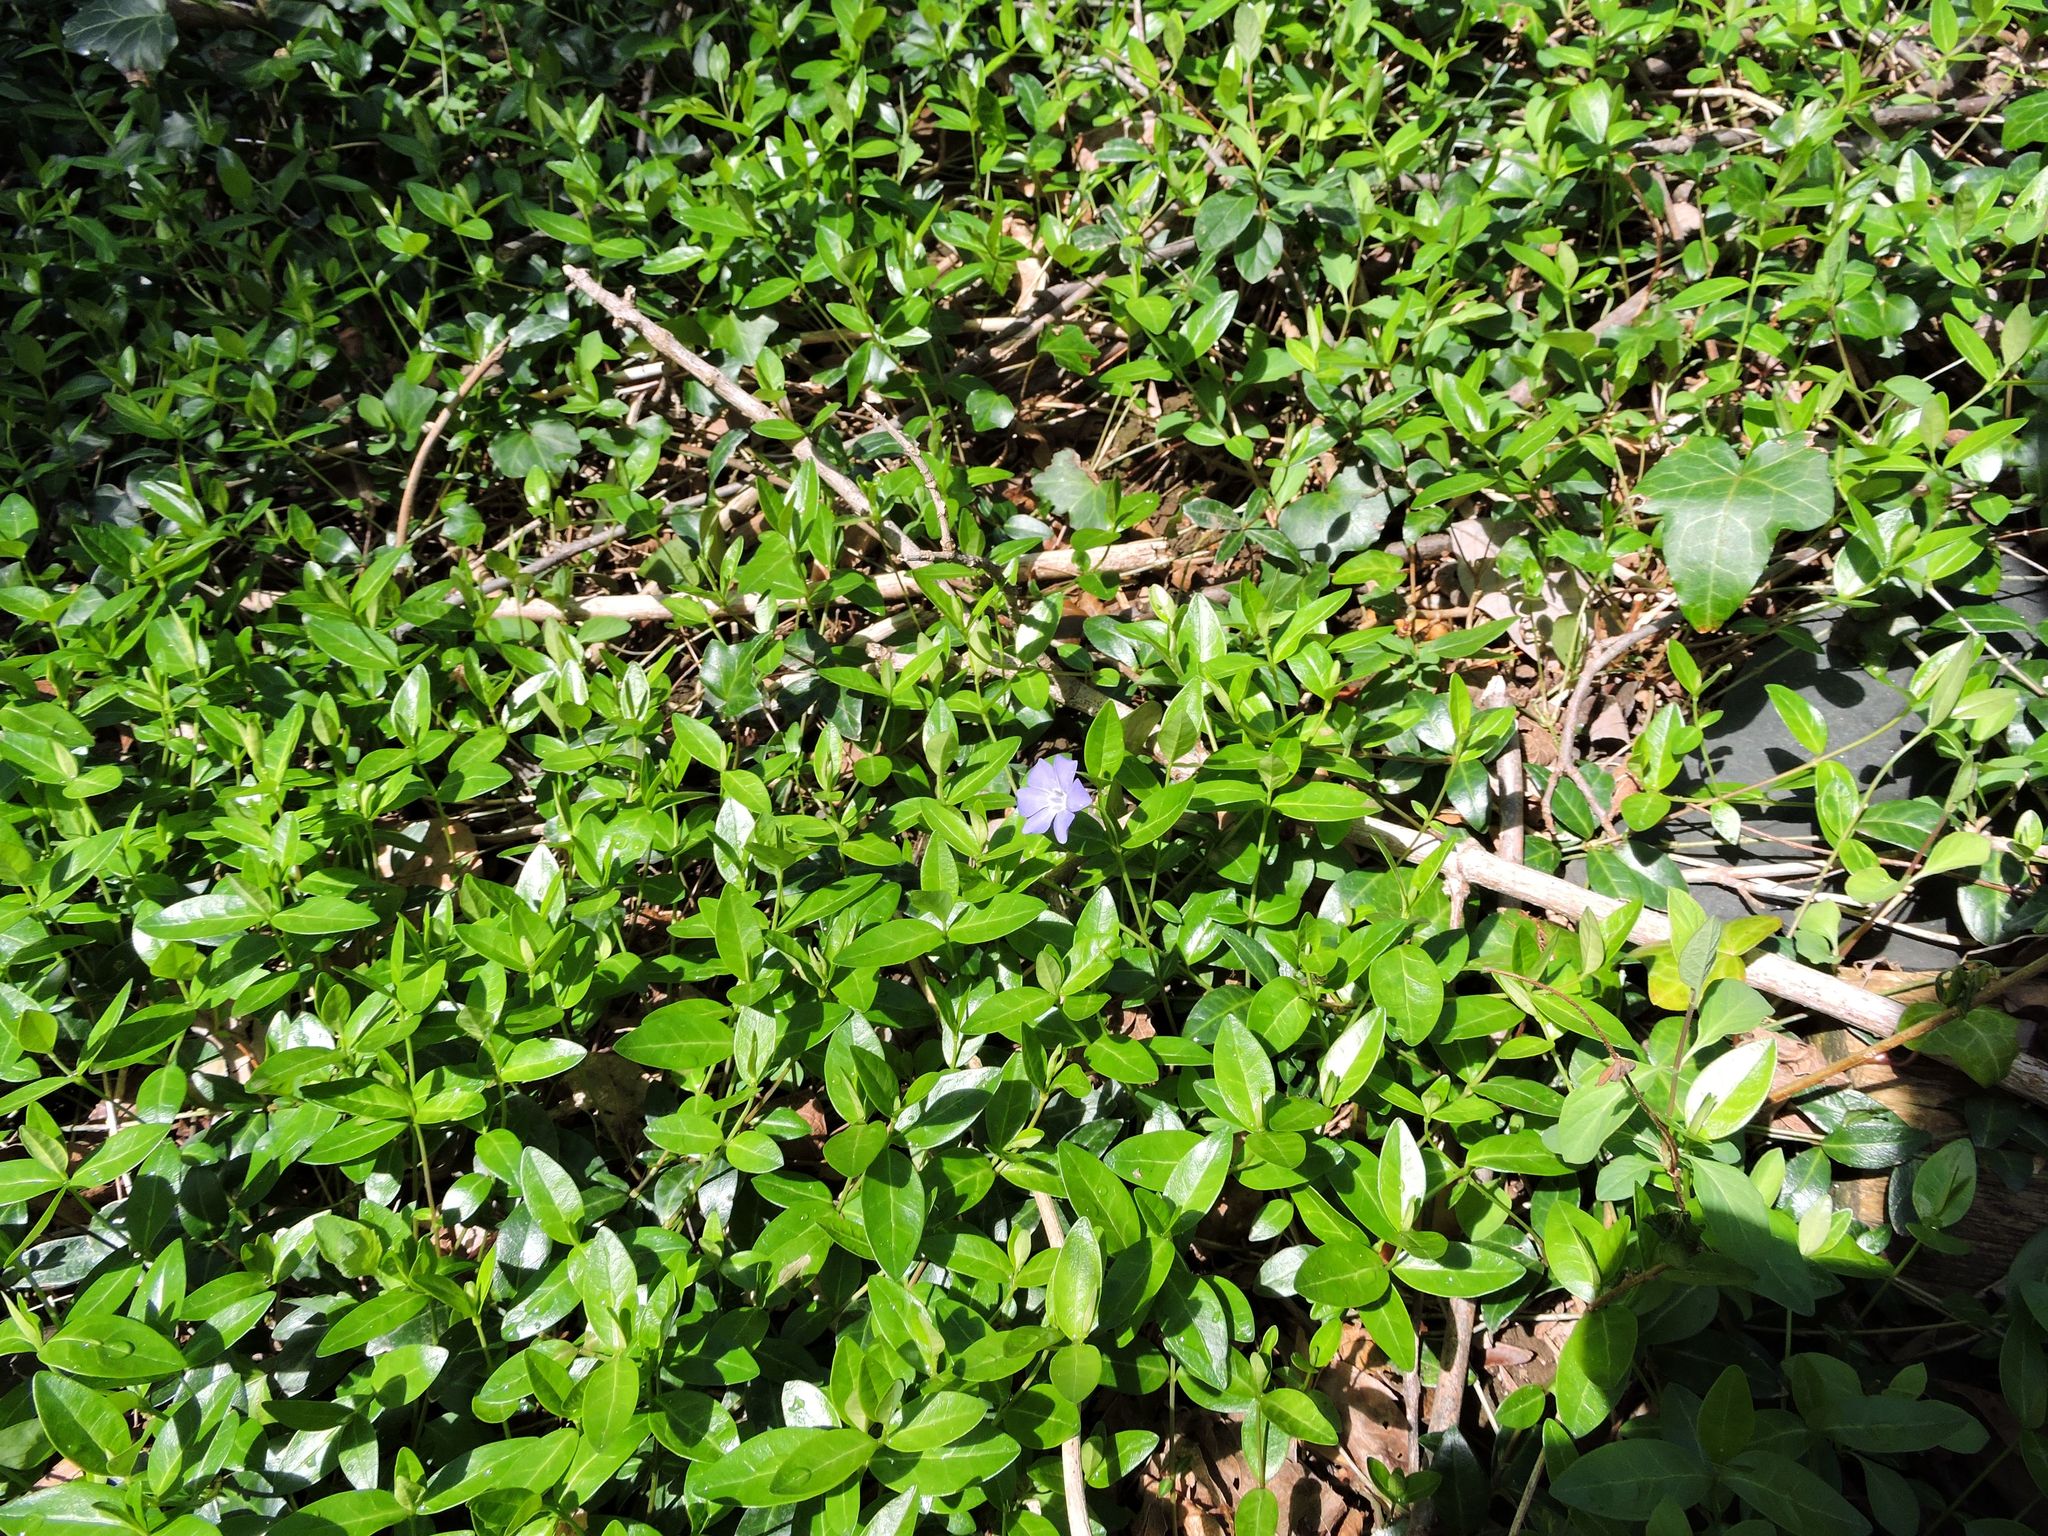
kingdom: Plantae
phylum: Tracheophyta
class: Magnoliopsida
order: Gentianales
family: Apocynaceae
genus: Vinca
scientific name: Vinca minor
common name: Lesser periwinkle
